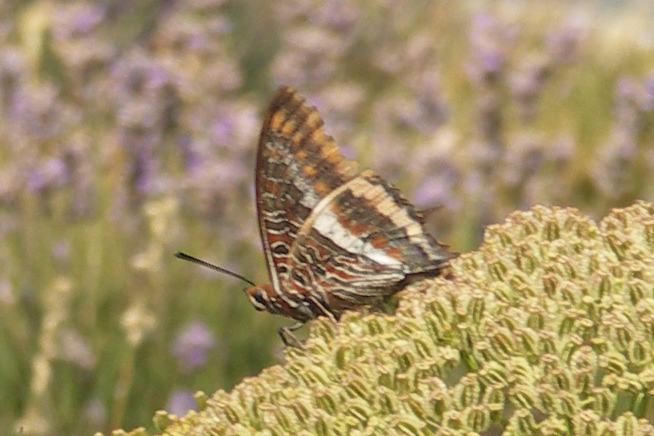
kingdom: Animalia
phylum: Arthropoda
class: Insecta
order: Lepidoptera
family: Nymphalidae
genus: Charaxes
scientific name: Charaxes jasius
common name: Two tailed pasha
